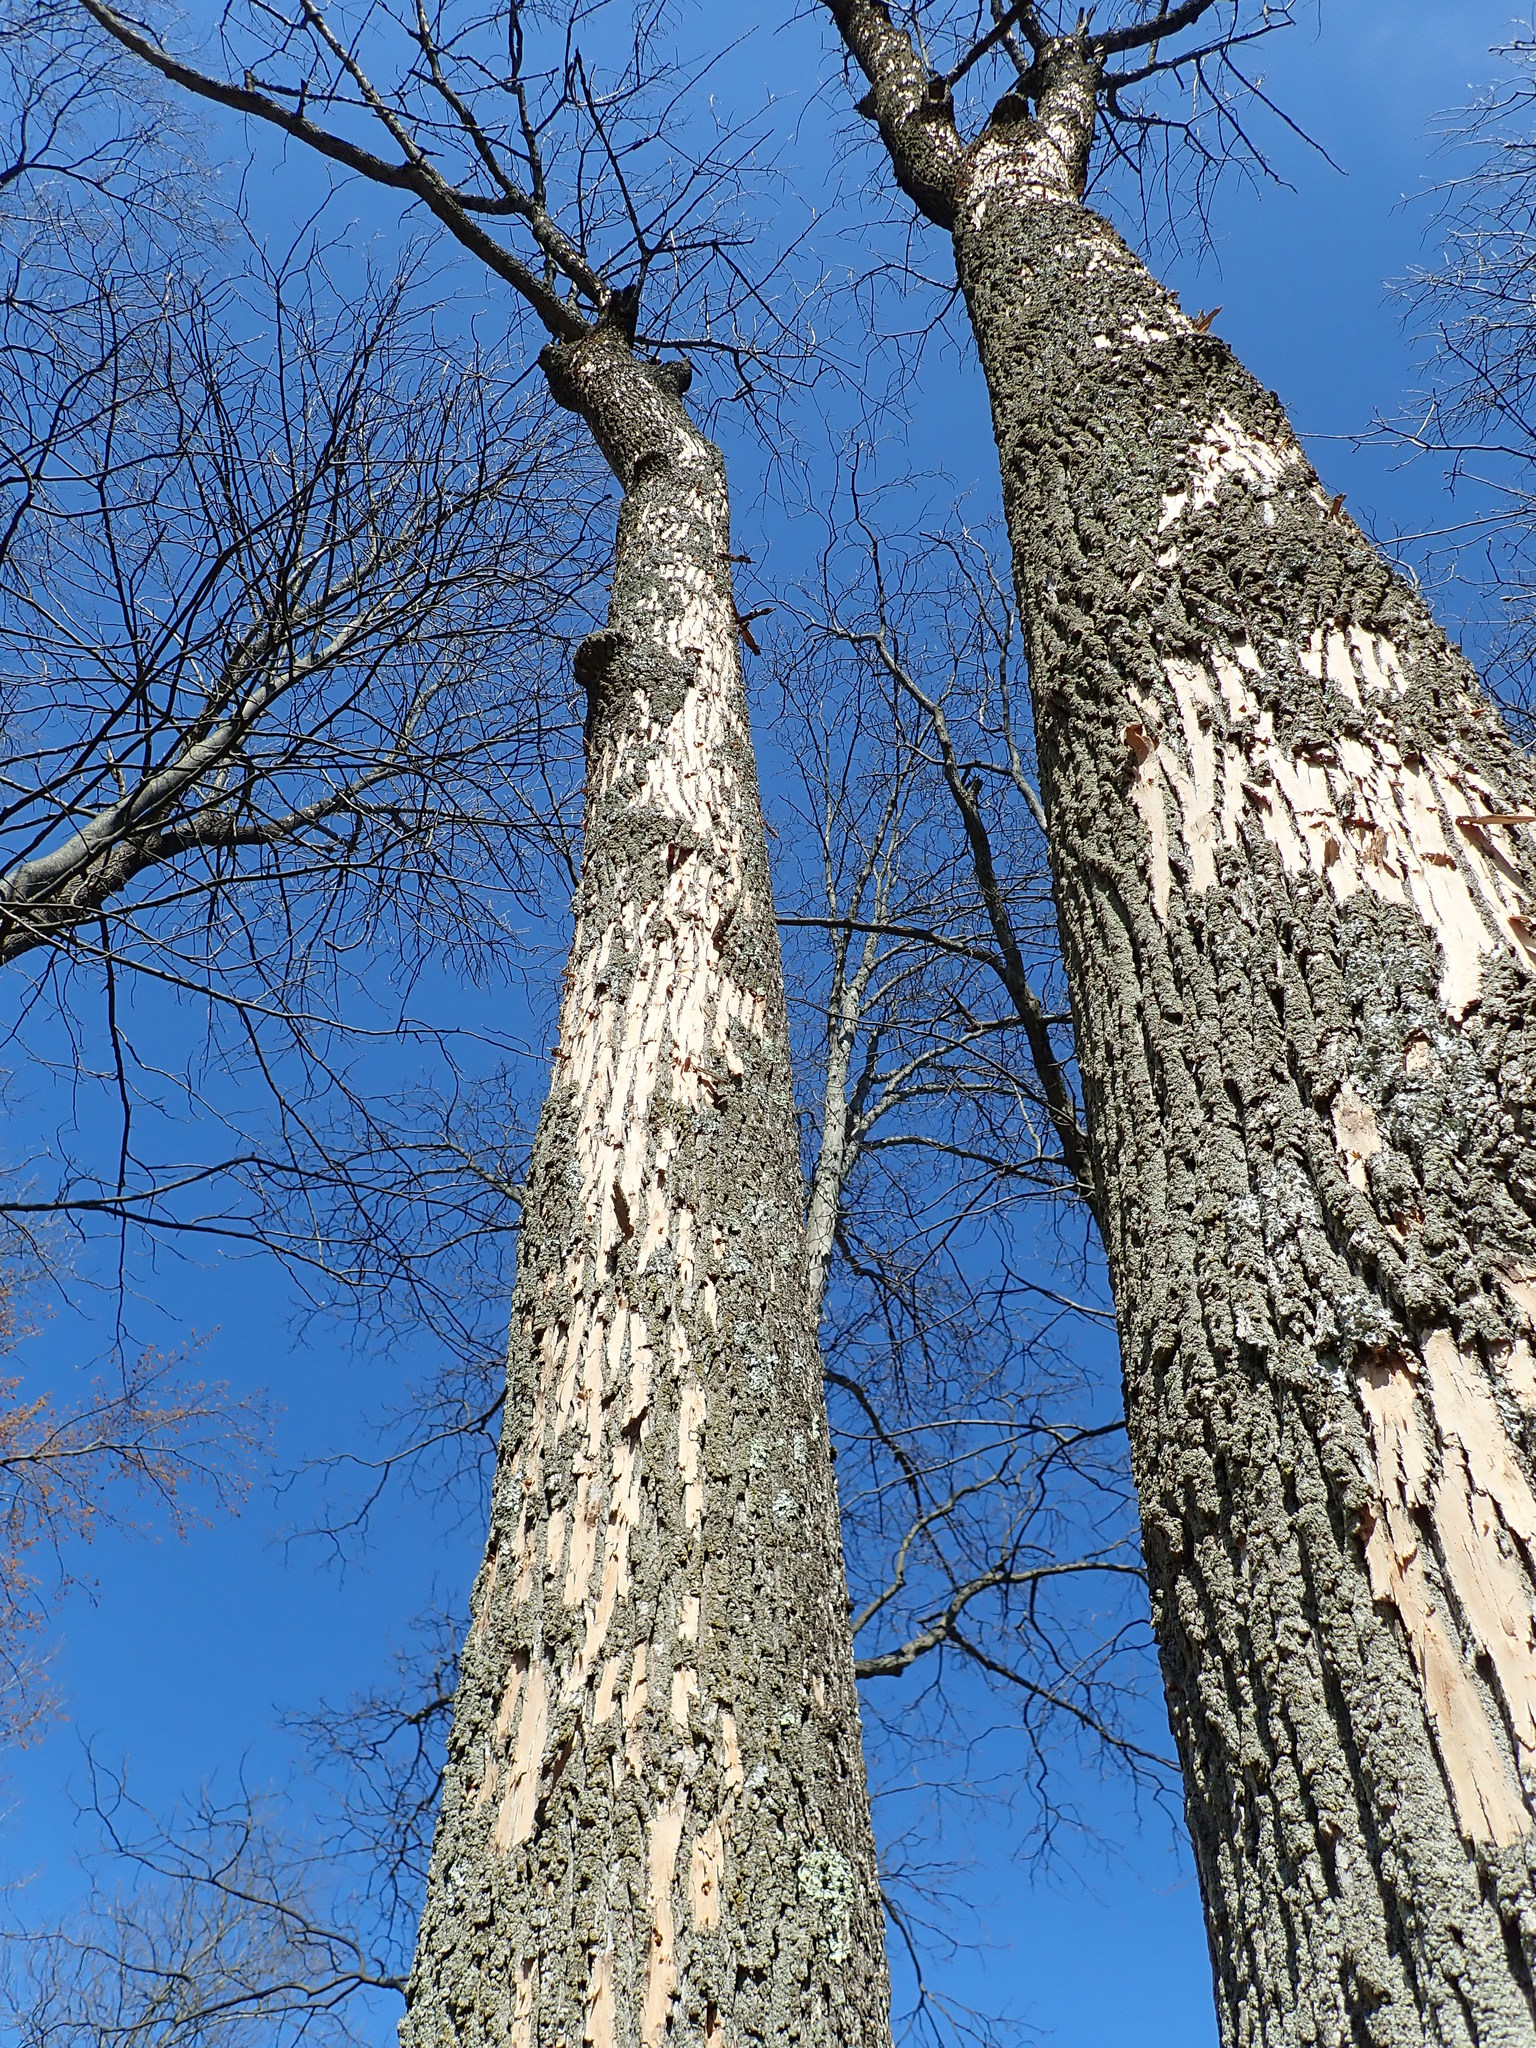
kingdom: Animalia
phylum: Arthropoda
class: Insecta
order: Coleoptera
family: Buprestidae
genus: Agrilus
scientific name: Agrilus planipennis
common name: Emerald ash borer
